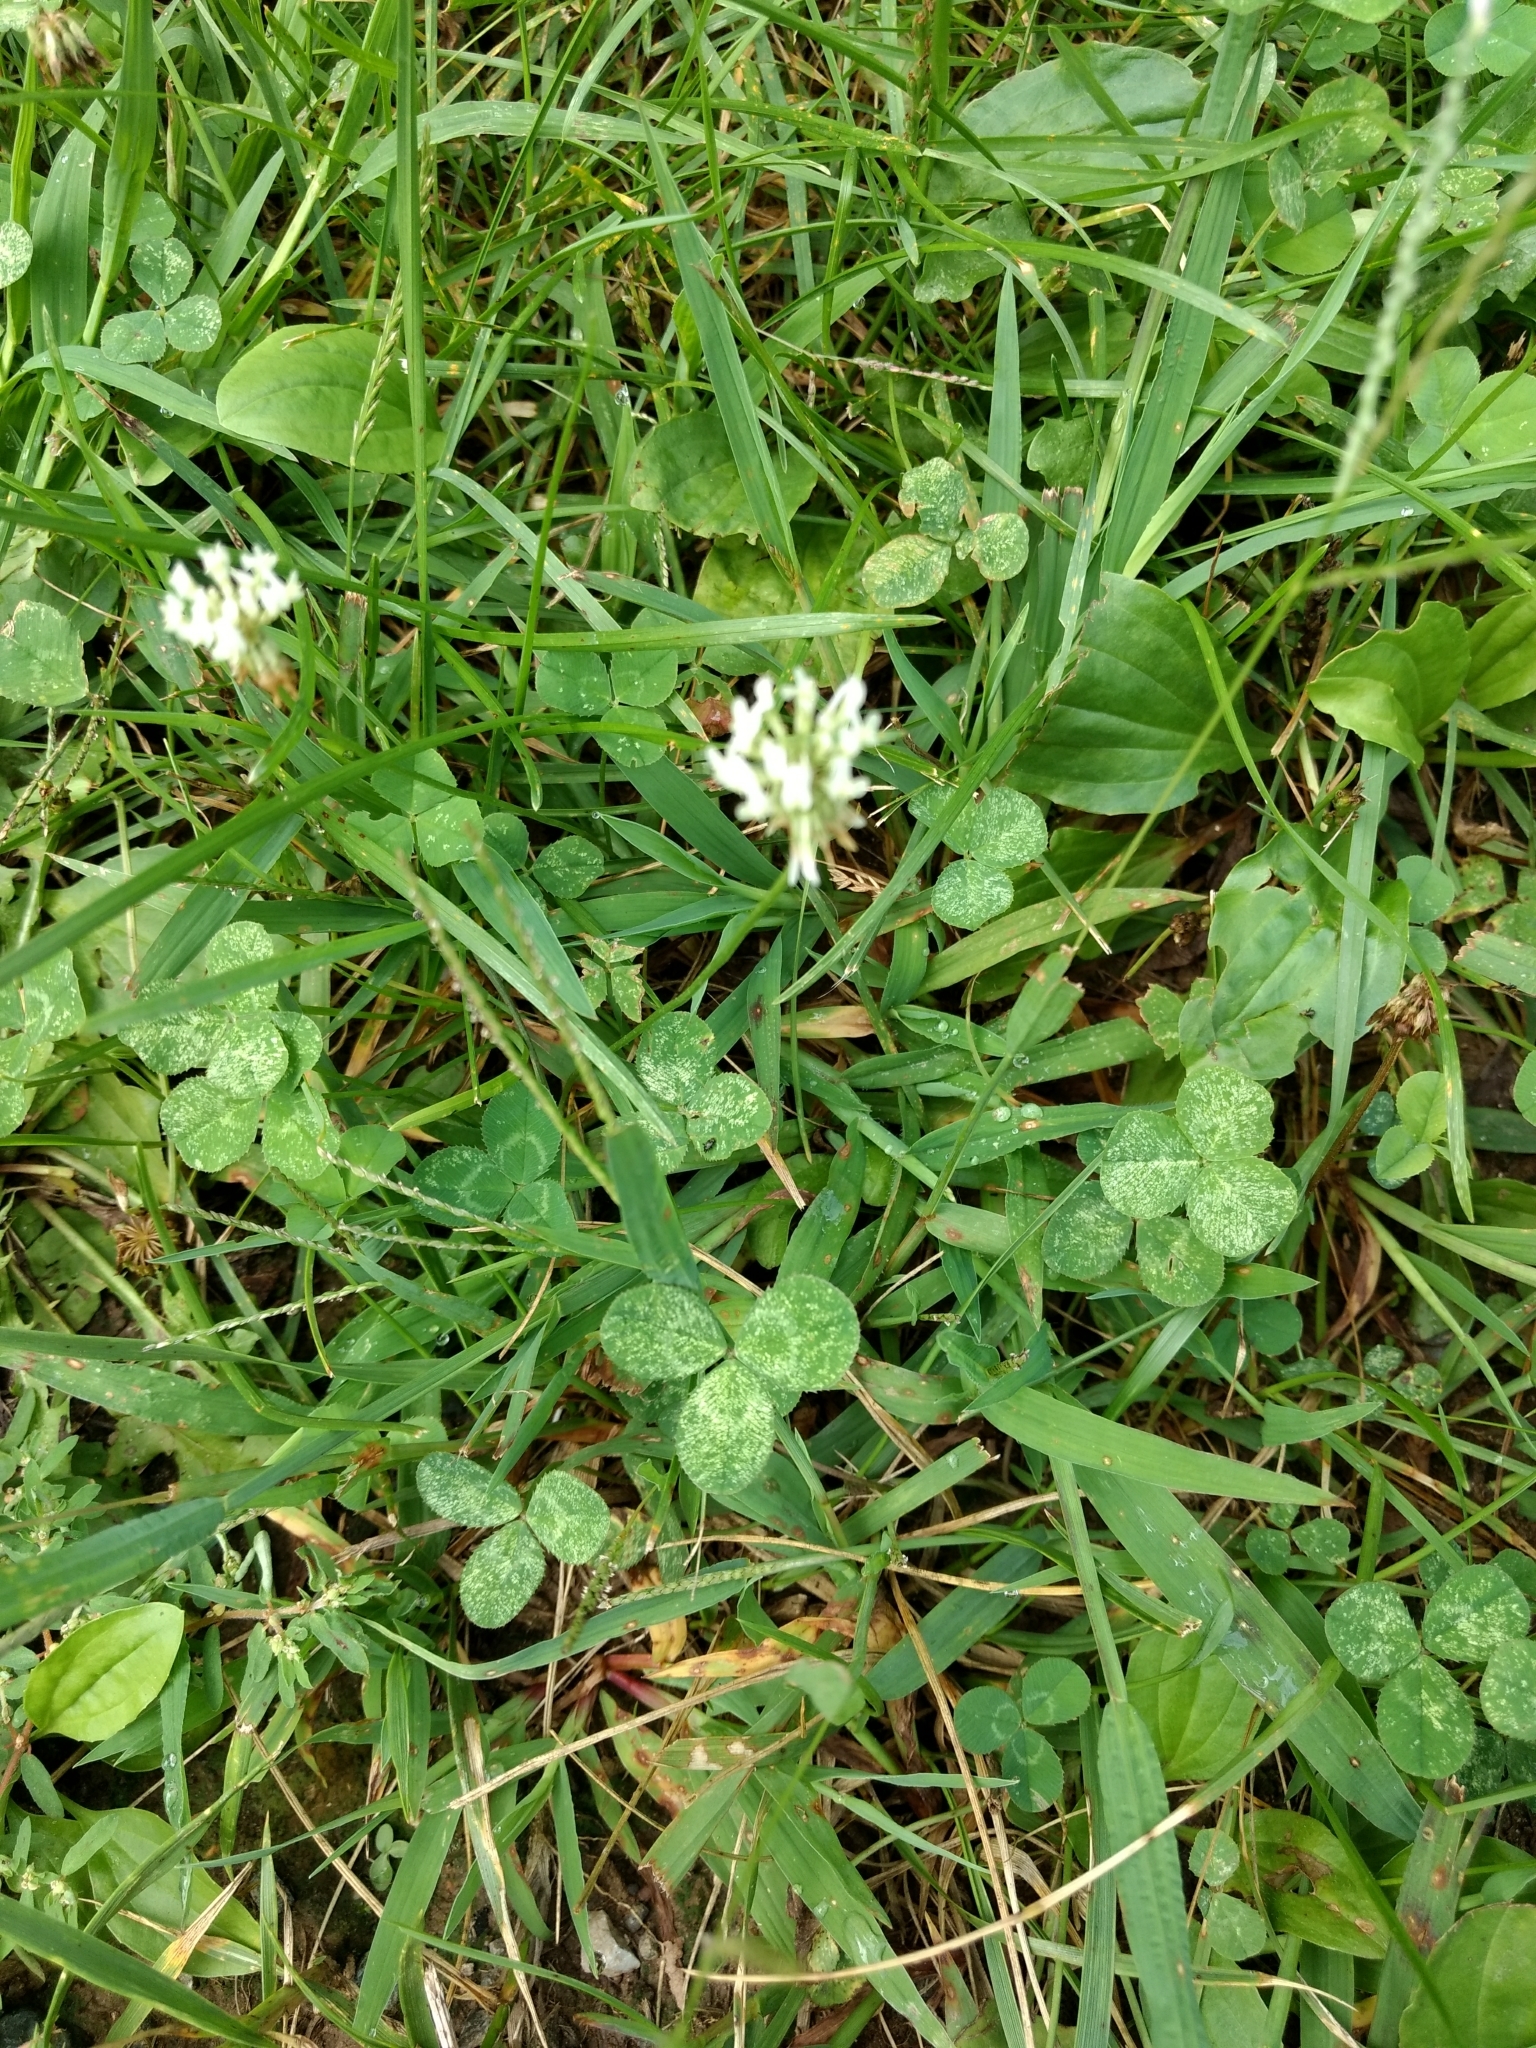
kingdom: Plantae
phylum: Tracheophyta
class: Magnoliopsida
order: Fabales
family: Fabaceae
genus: Trifolium
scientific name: Trifolium repens
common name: White clover
